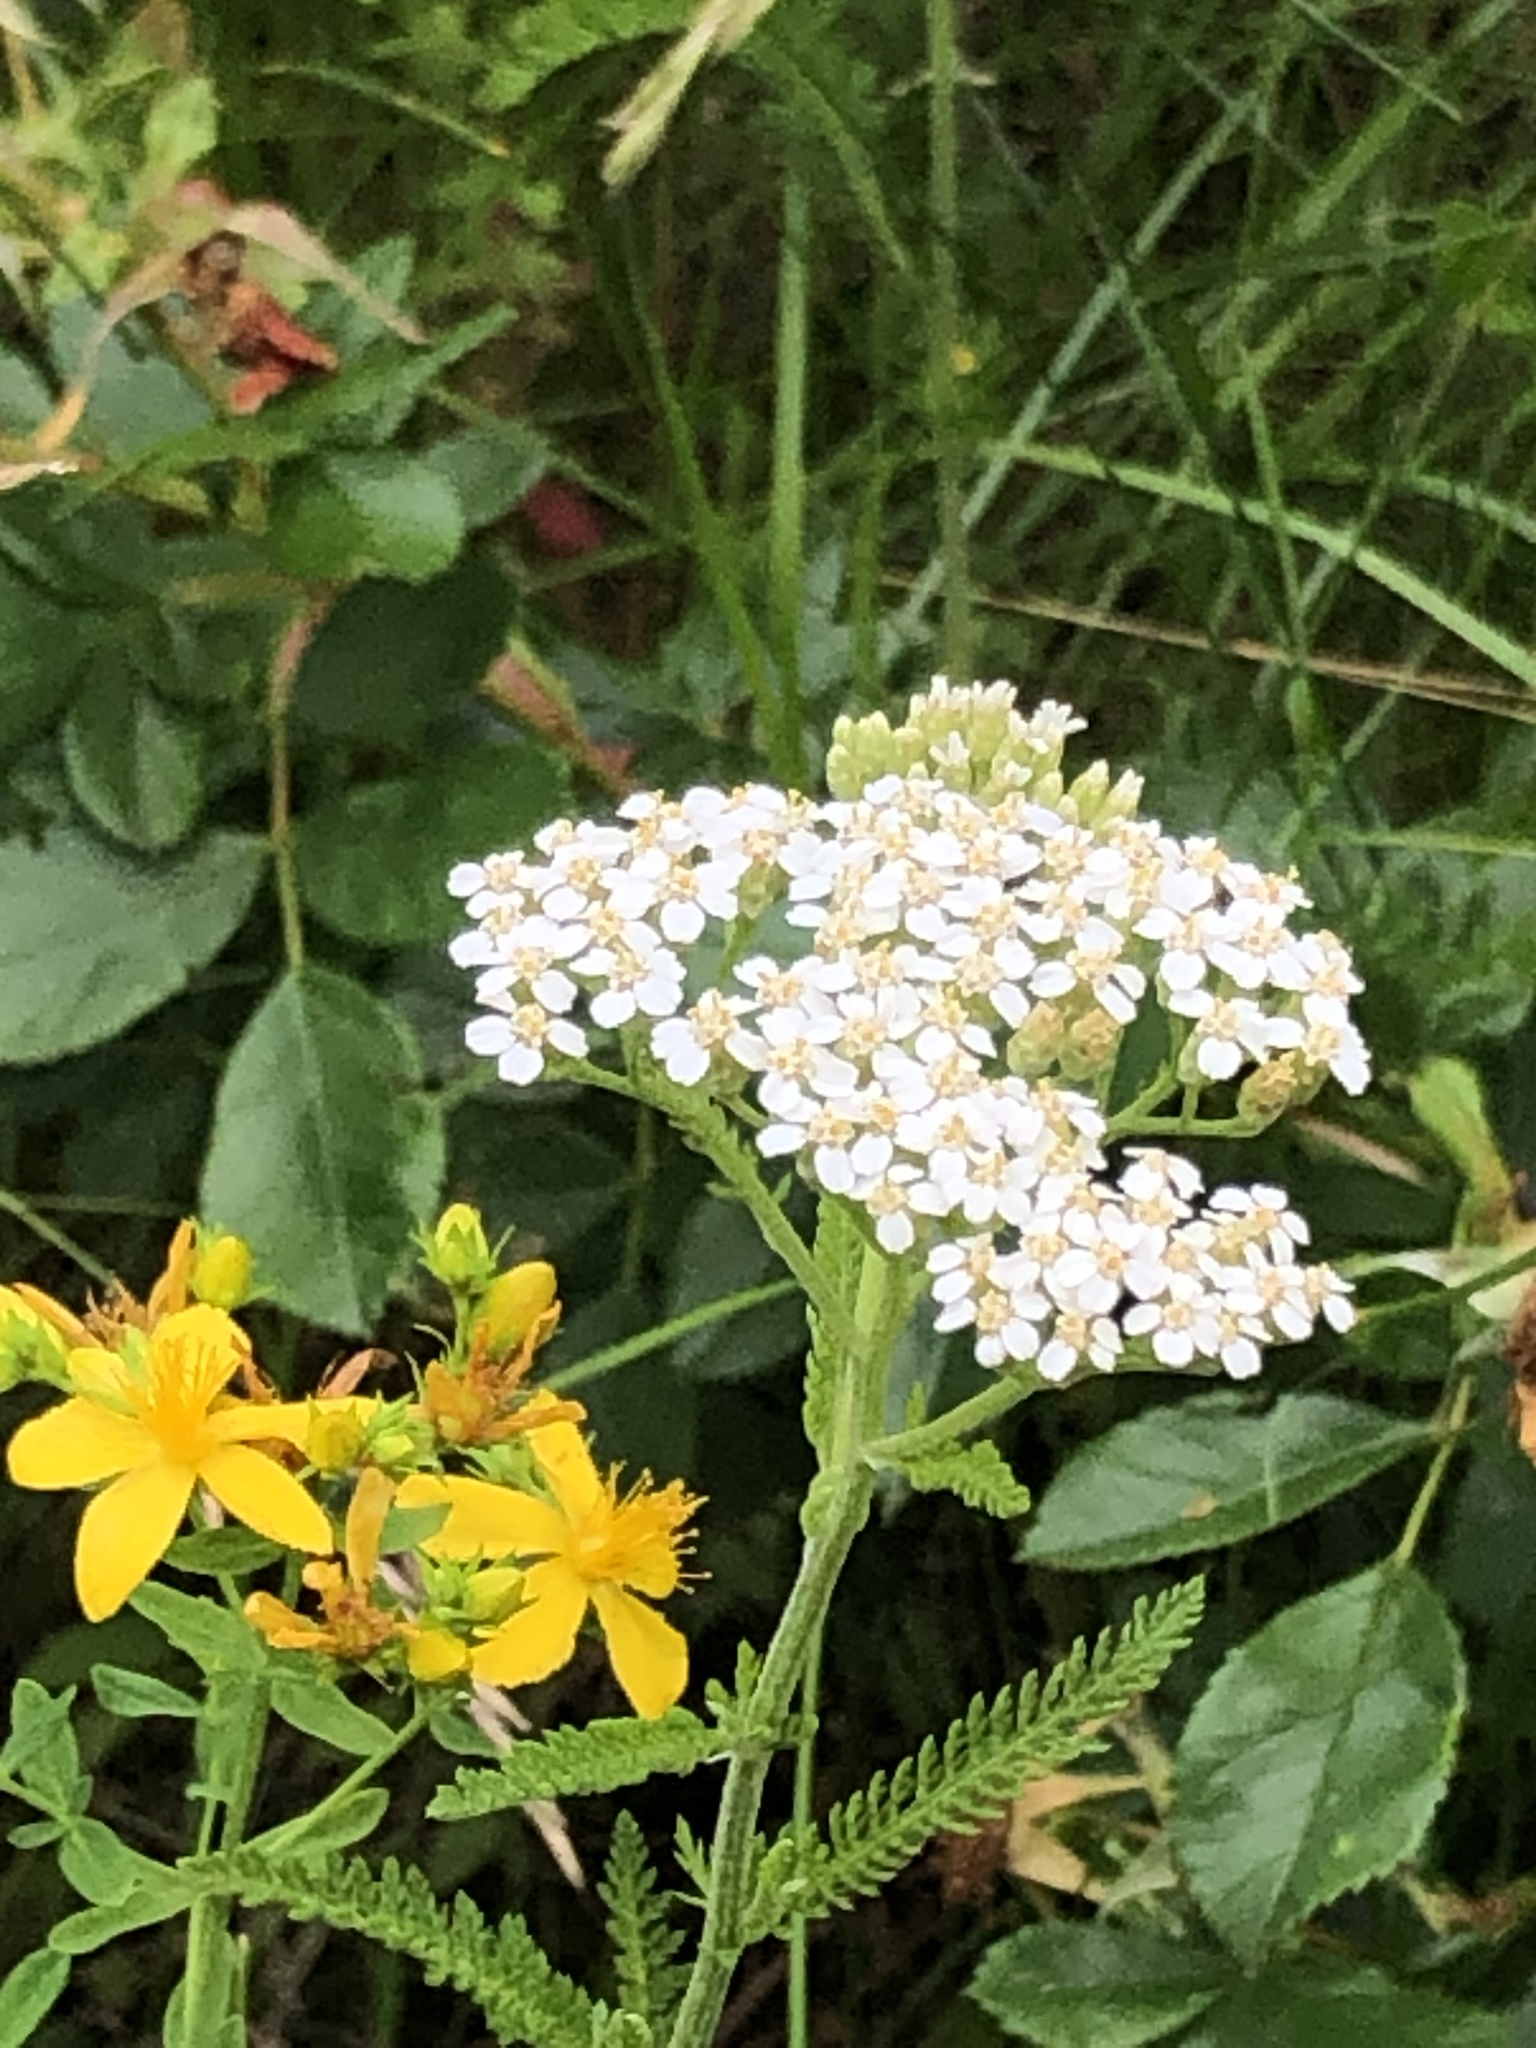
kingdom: Plantae
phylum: Tracheophyta
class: Magnoliopsida
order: Asterales
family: Asteraceae
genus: Achillea
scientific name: Achillea millefolium
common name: Yarrow
